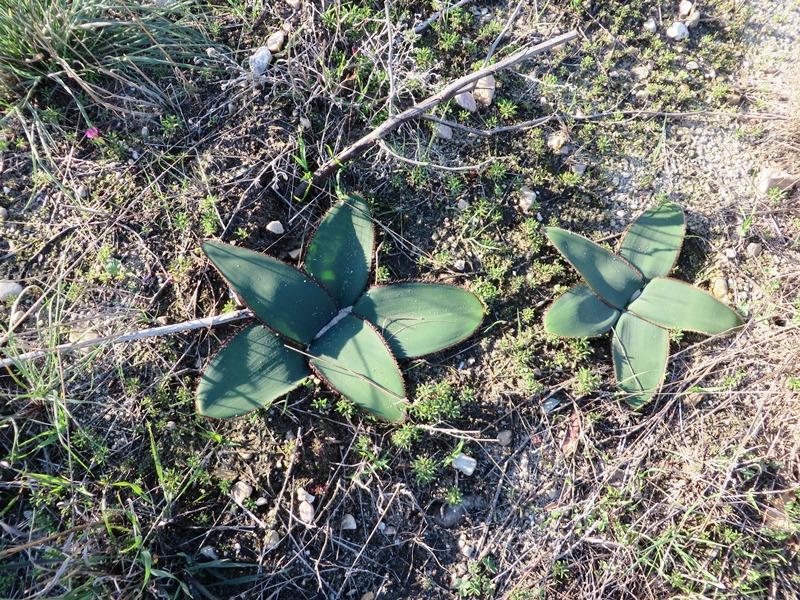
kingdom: Plantae
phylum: Tracheophyta
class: Liliopsida
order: Asparagales
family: Amaryllidaceae
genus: Crossyne
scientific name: Crossyne guttata
